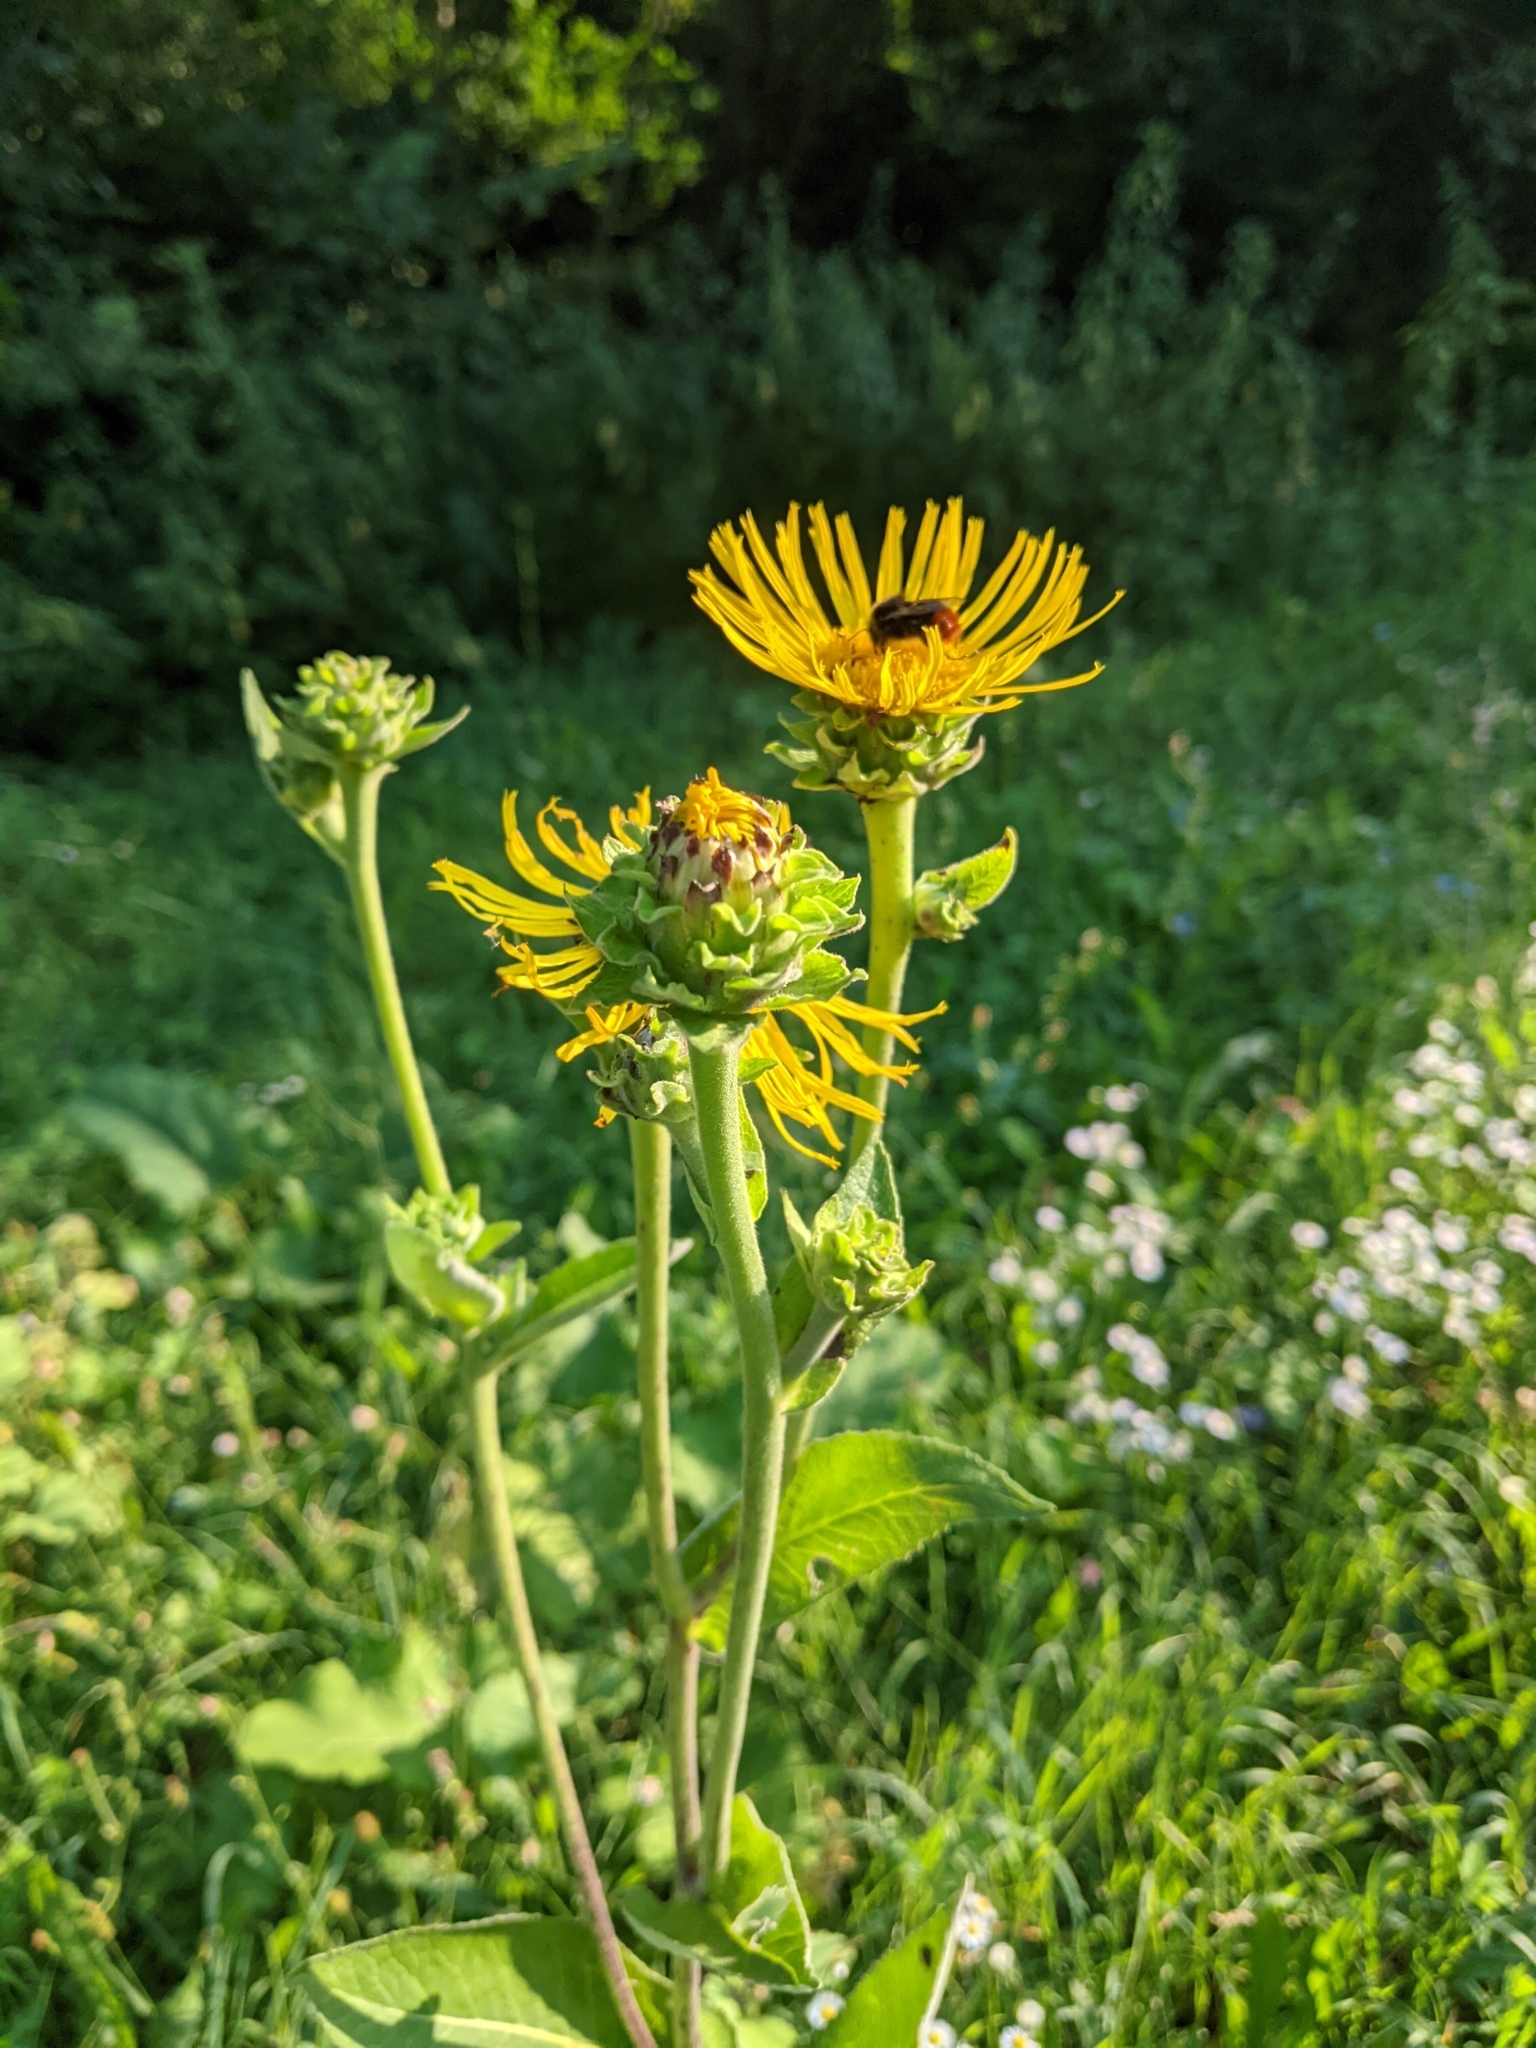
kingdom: Plantae
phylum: Tracheophyta
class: Magnoliopsida
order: Asterales
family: Asteraceae
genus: Inula
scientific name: Inula helenium
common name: Elecampane
